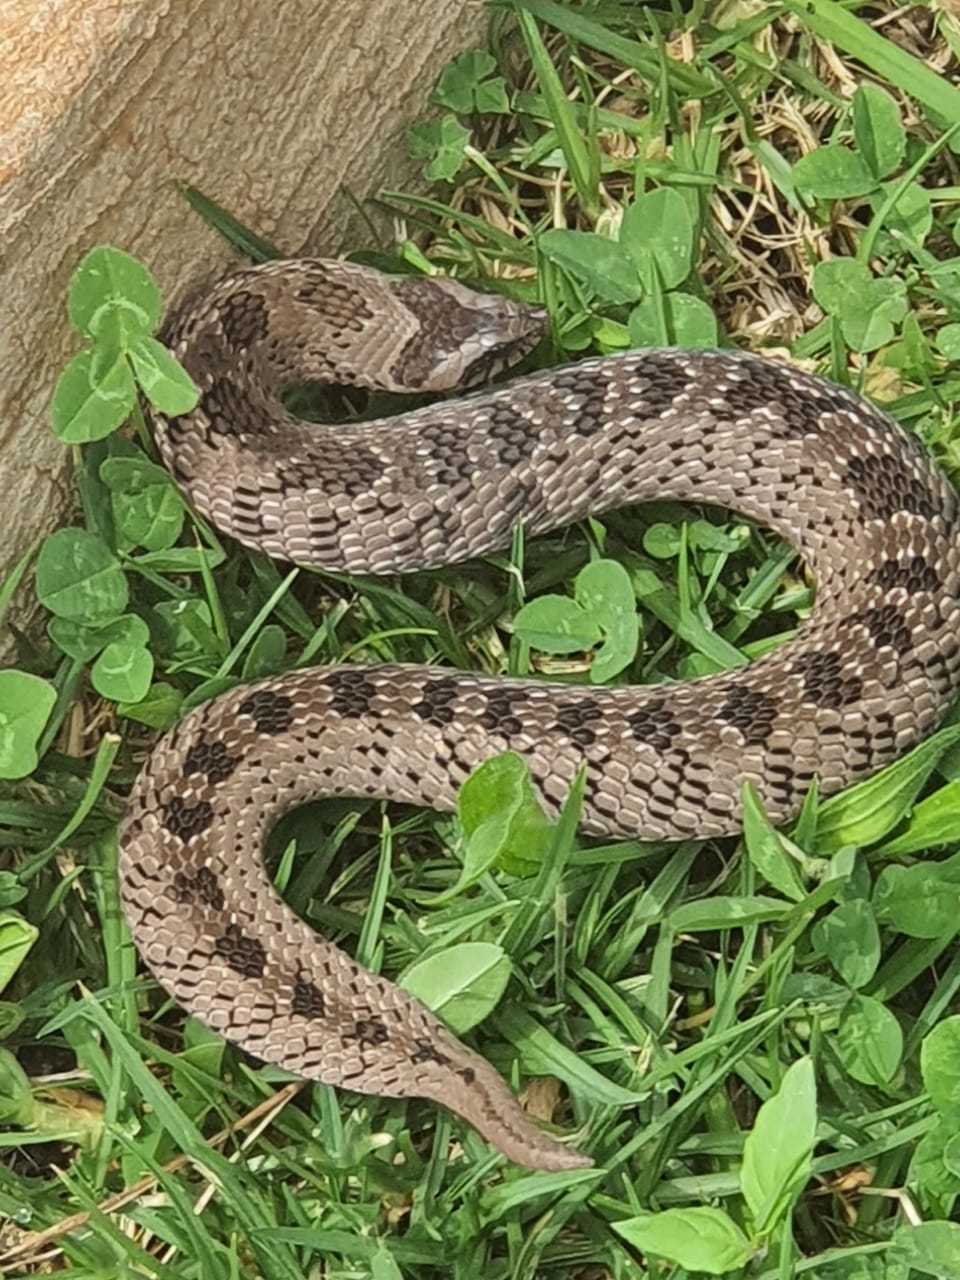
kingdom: Animalia
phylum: Chordata
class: Squamata
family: Viperidae
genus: Causus
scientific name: Causus defilippii
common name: Snouted night adder
